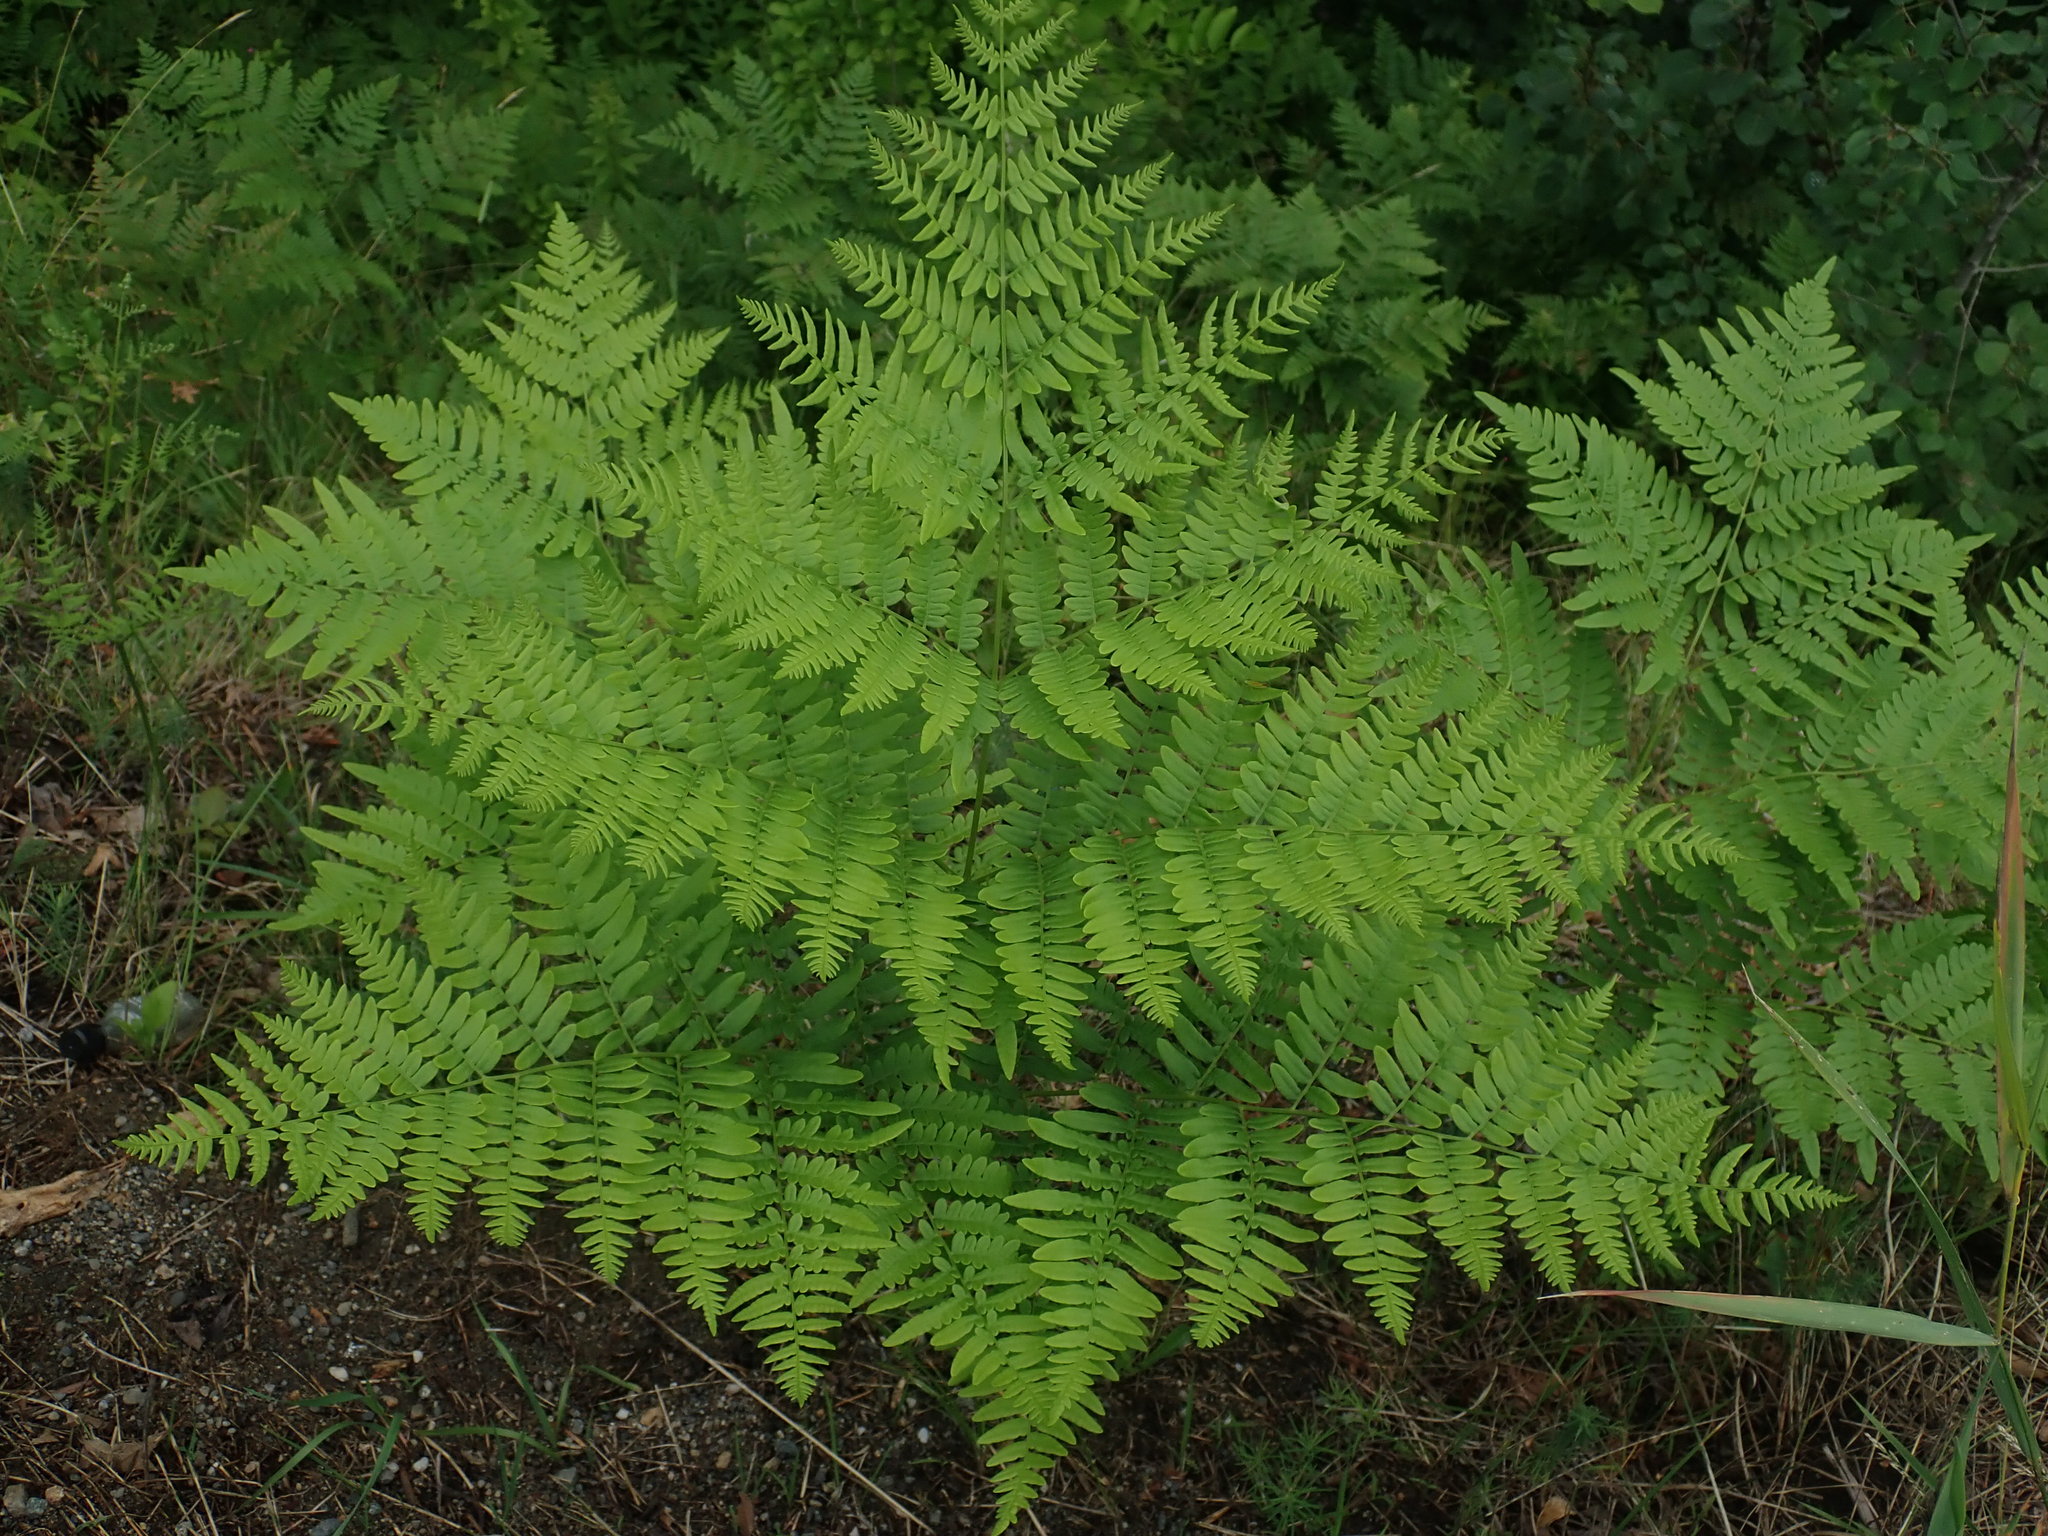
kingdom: Plantae
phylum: Tracheophyta
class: Polypodiopsida
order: Polypodiales
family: Dennstaedtiaceae
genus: Pteridium
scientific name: Pteridium aquilinum
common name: Bracken
